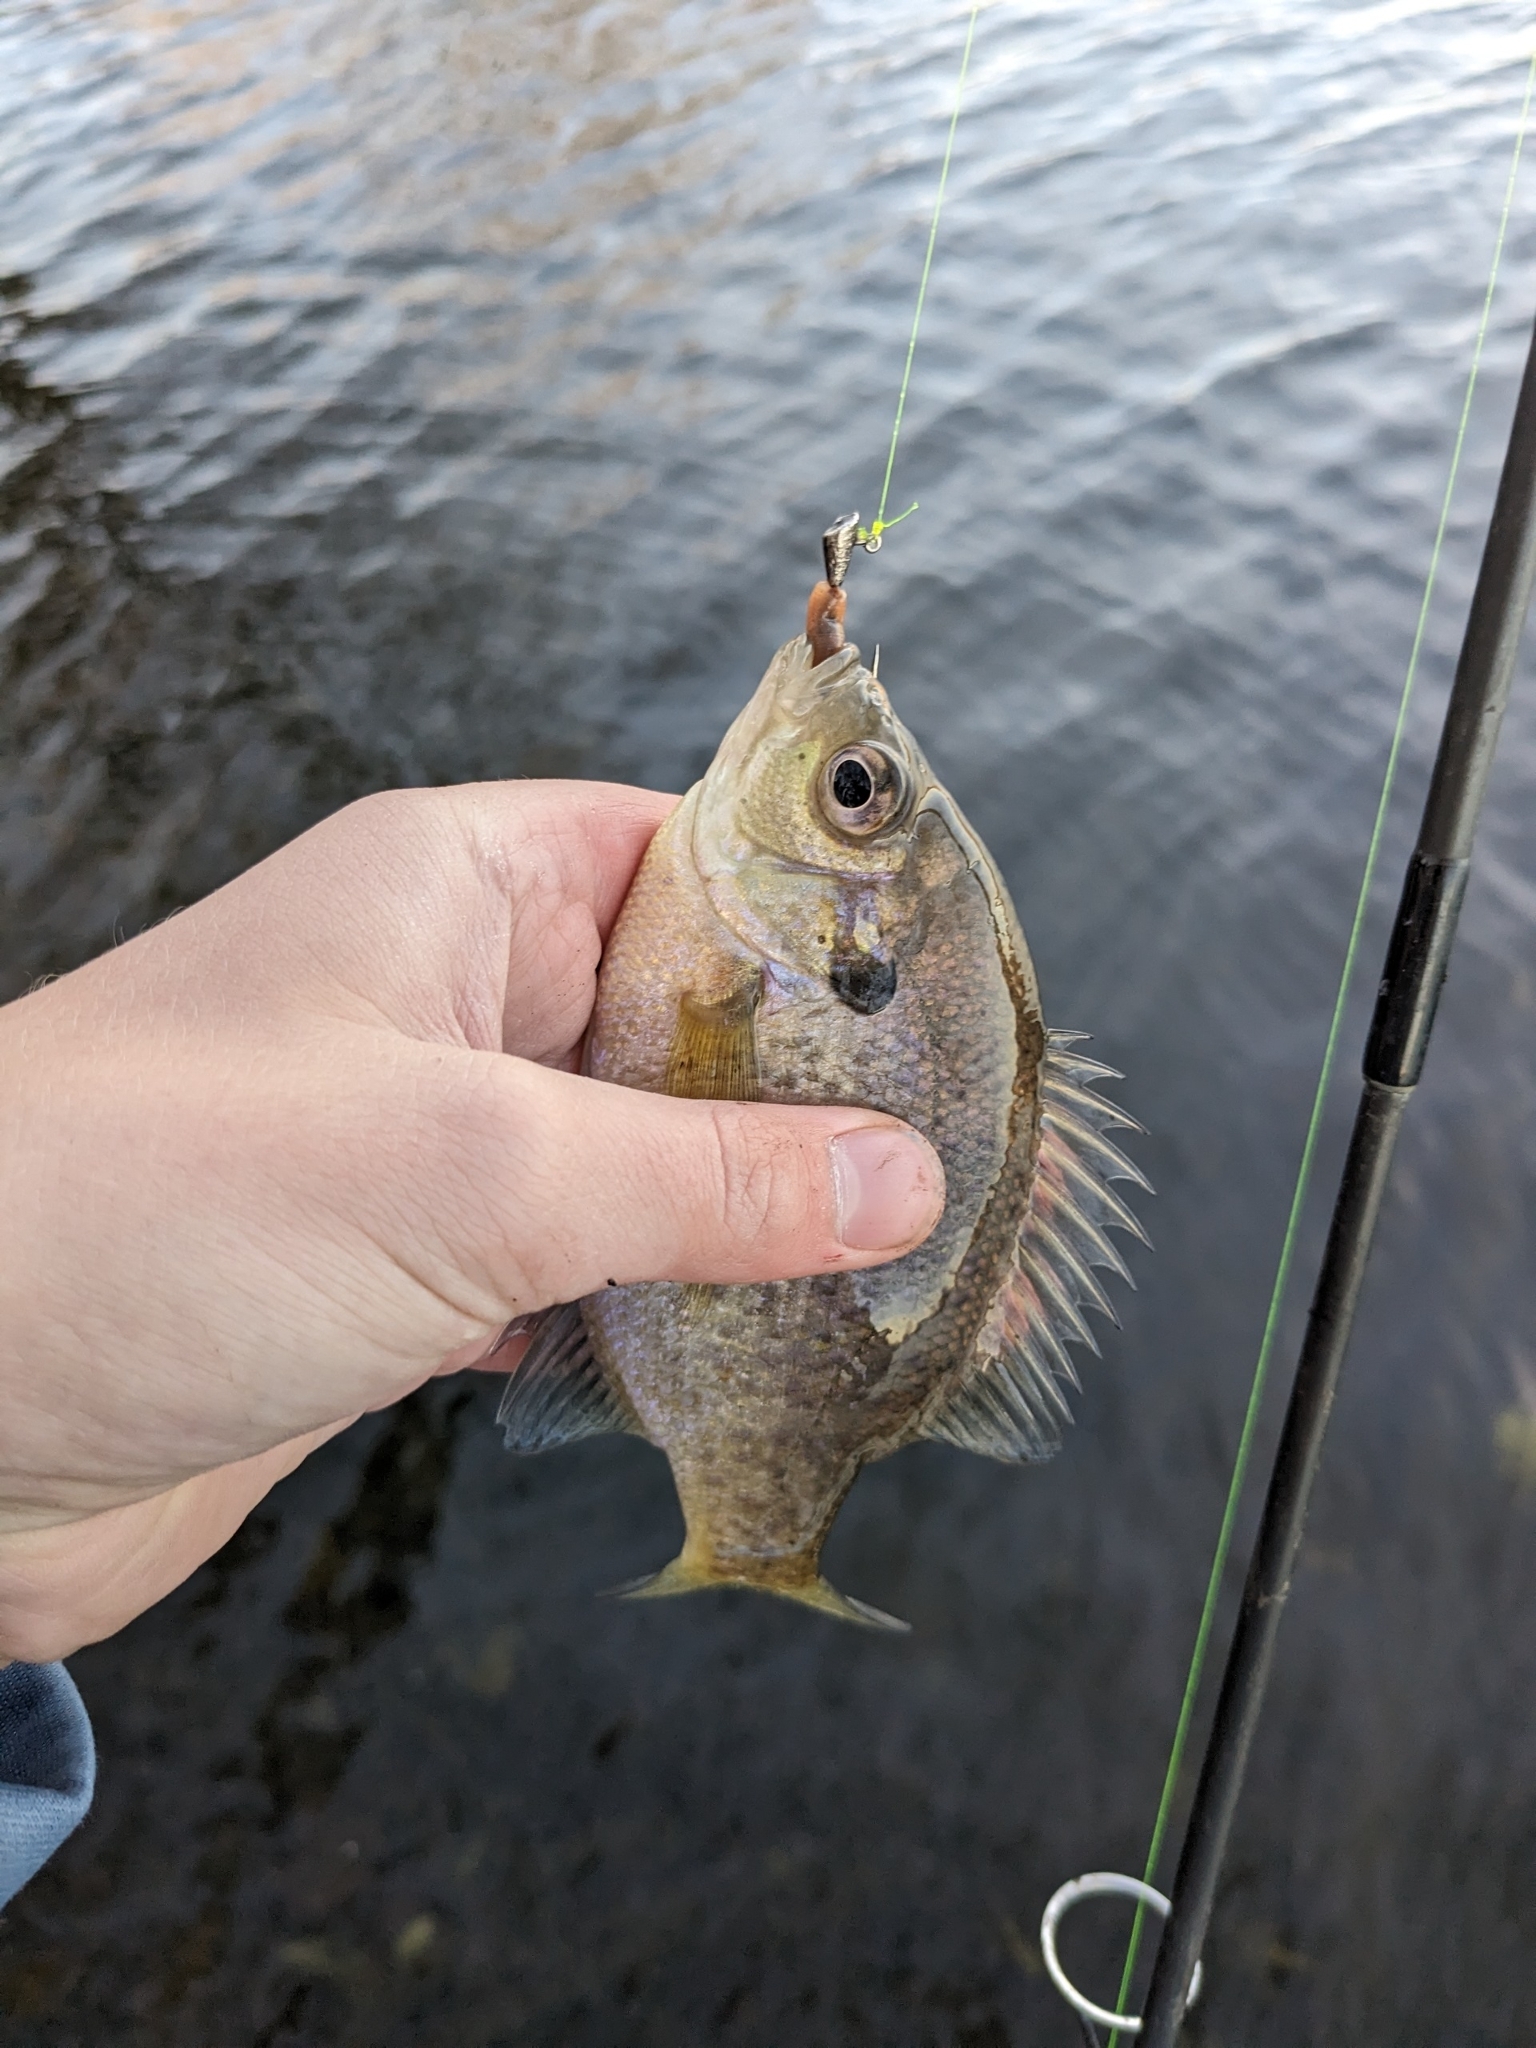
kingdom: Animalia
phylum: Chordata
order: Perciformes
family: Centrarchidae
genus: Lepomis
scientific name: Lepomis macrochirus
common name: Bluegill
